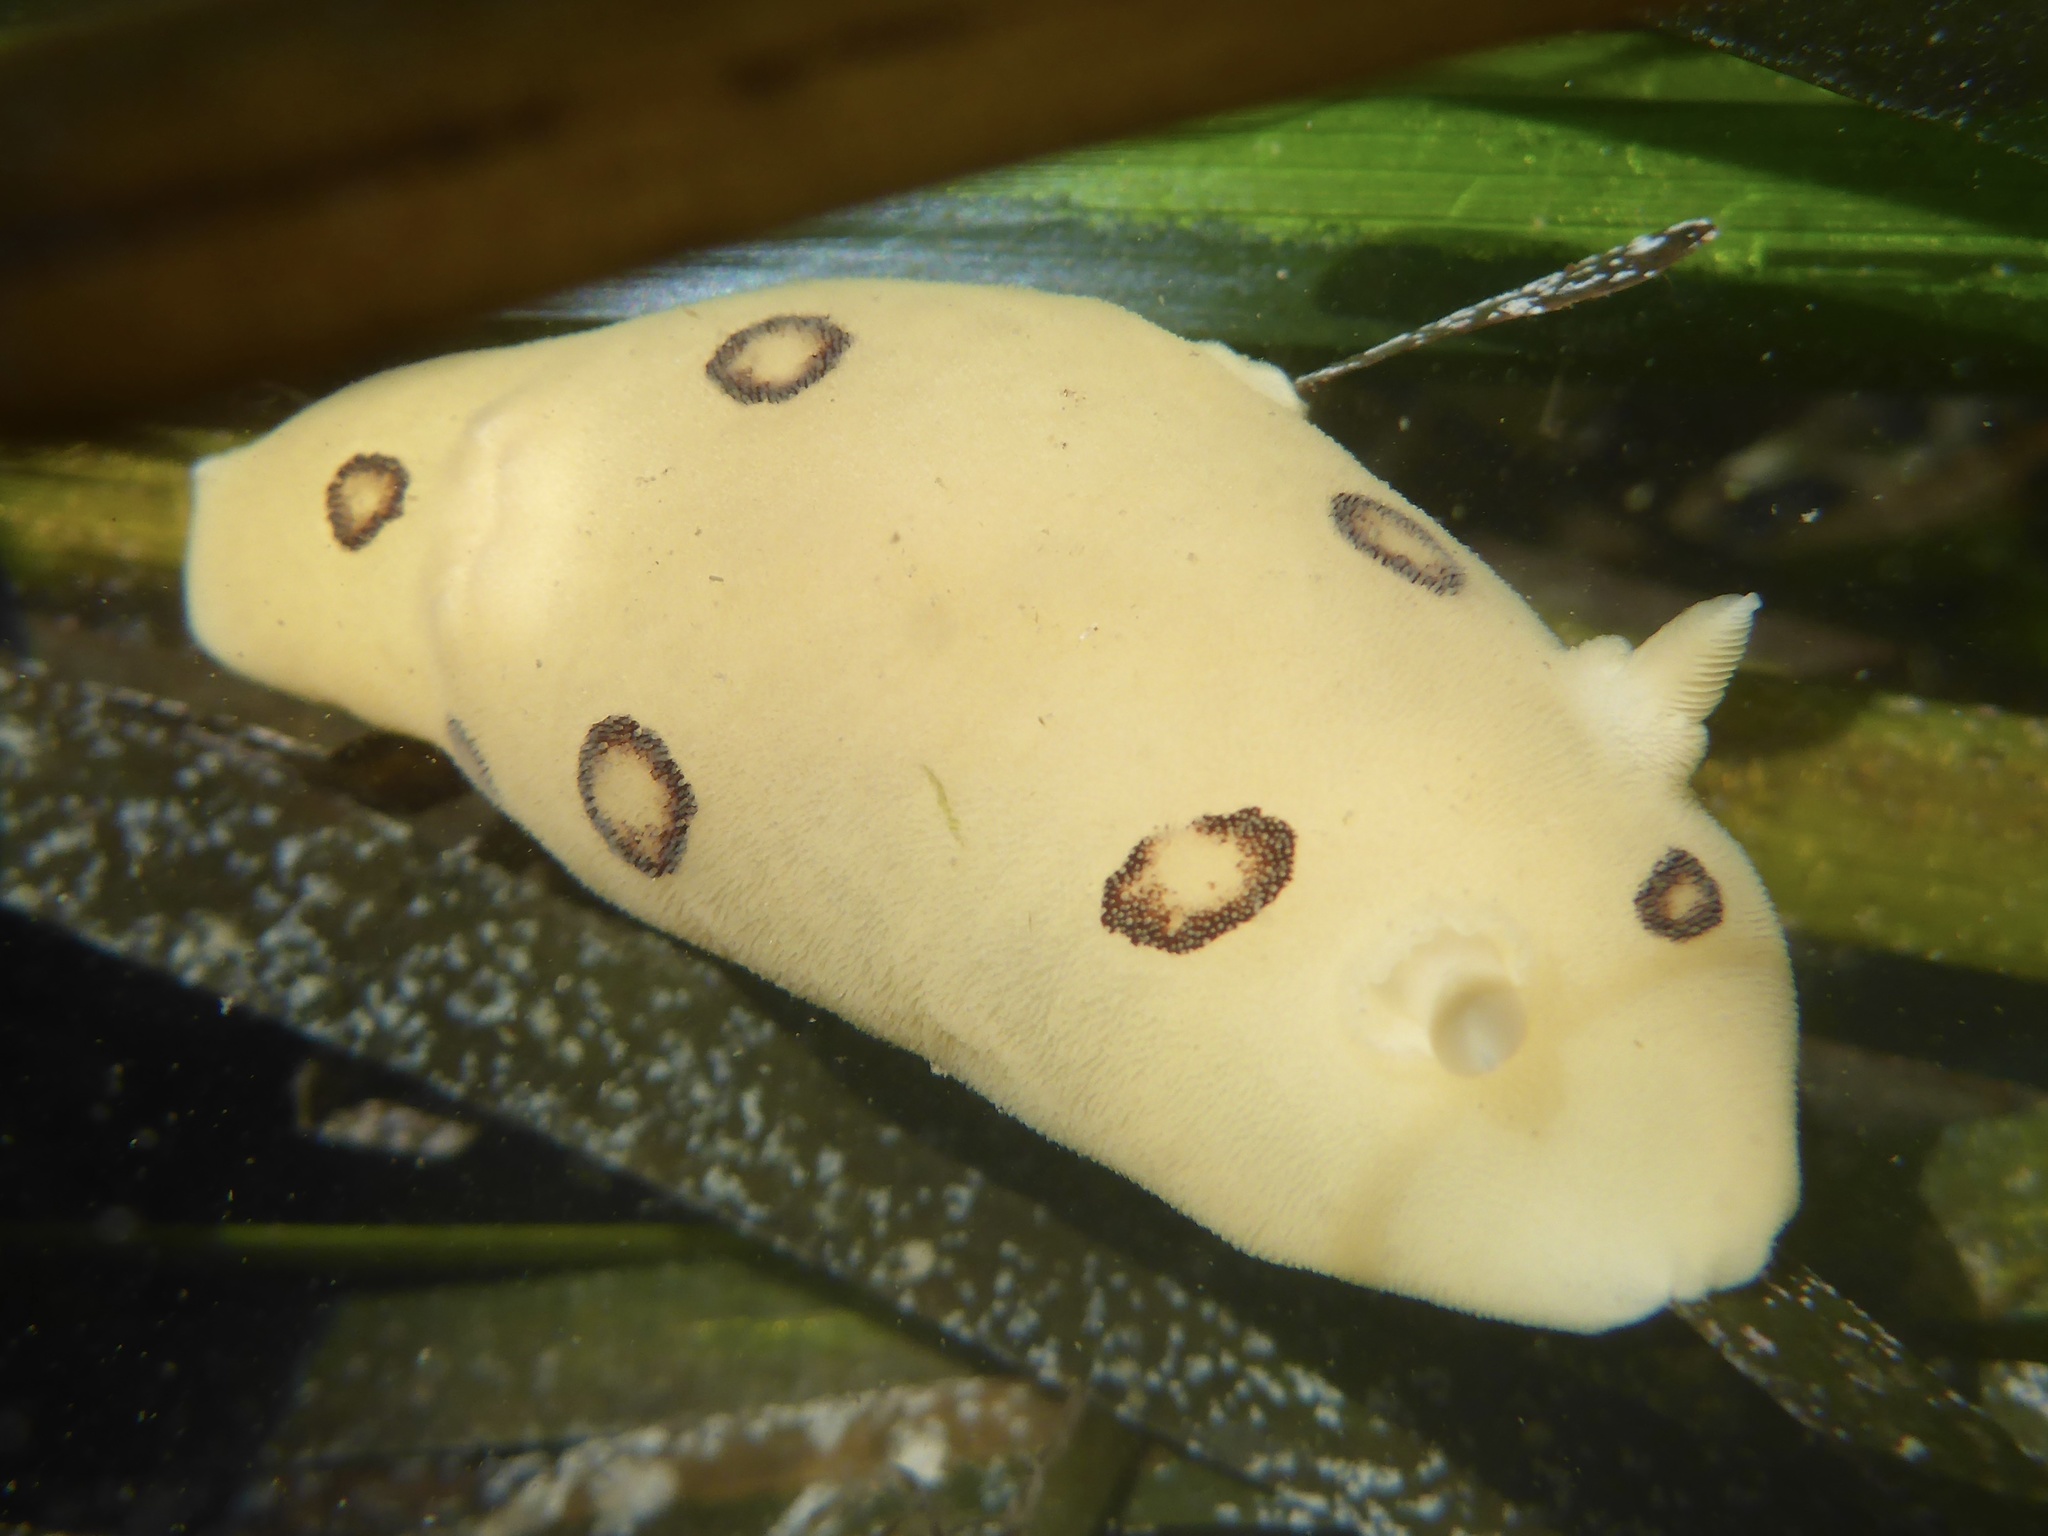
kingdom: Animalia
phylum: Mollusca
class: Gastropoda
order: Nudibranchia
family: Discodorididae
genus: Diaulula
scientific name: Diaulula sandiegensis
